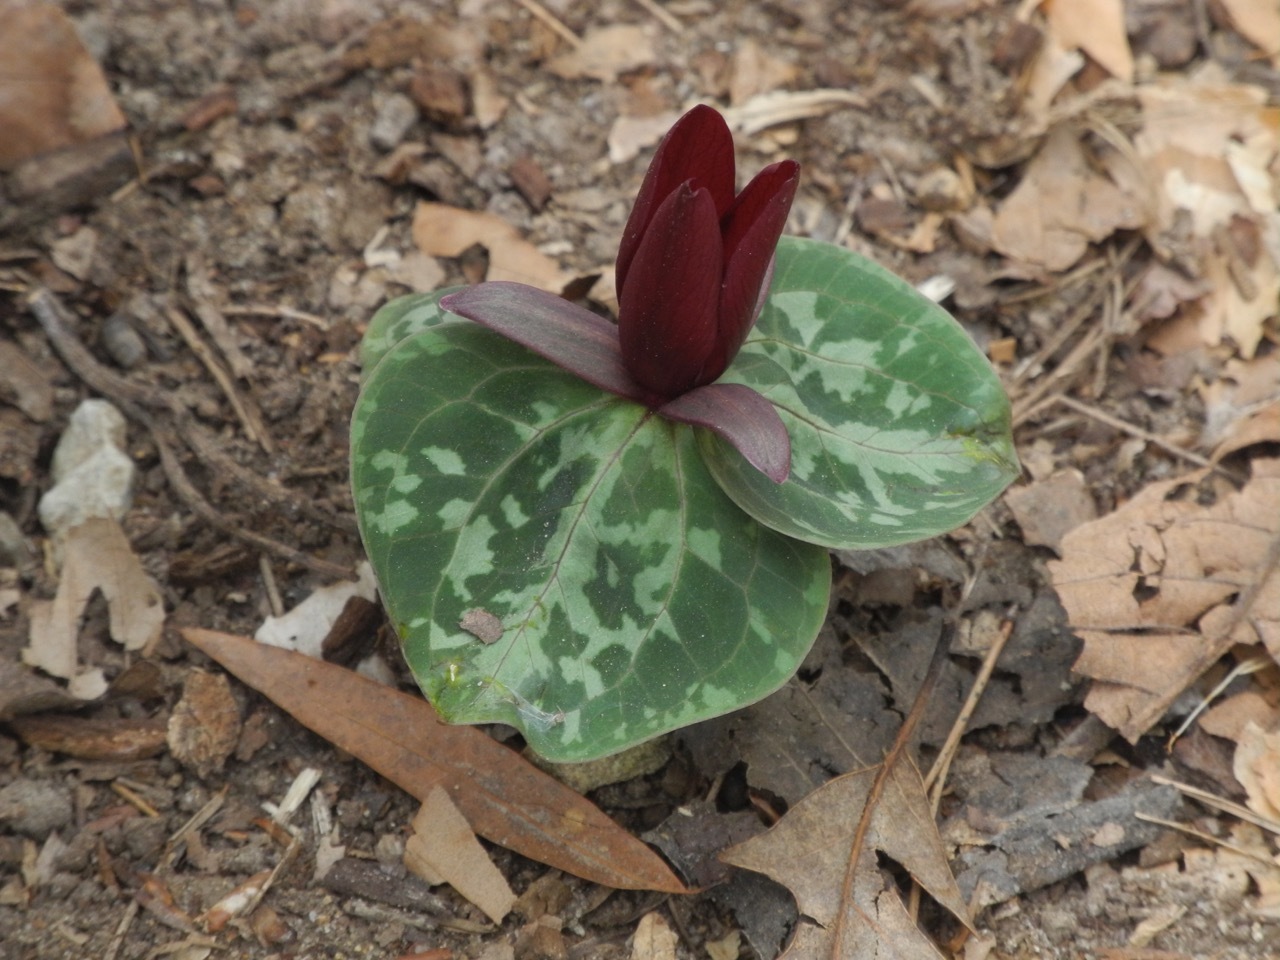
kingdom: Plantae
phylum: Tracheophyta
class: Liliopsida
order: Liliales
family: Melanthiaceae
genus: Trillium
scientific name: Trillium cuneatum
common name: Cuneate trillium
